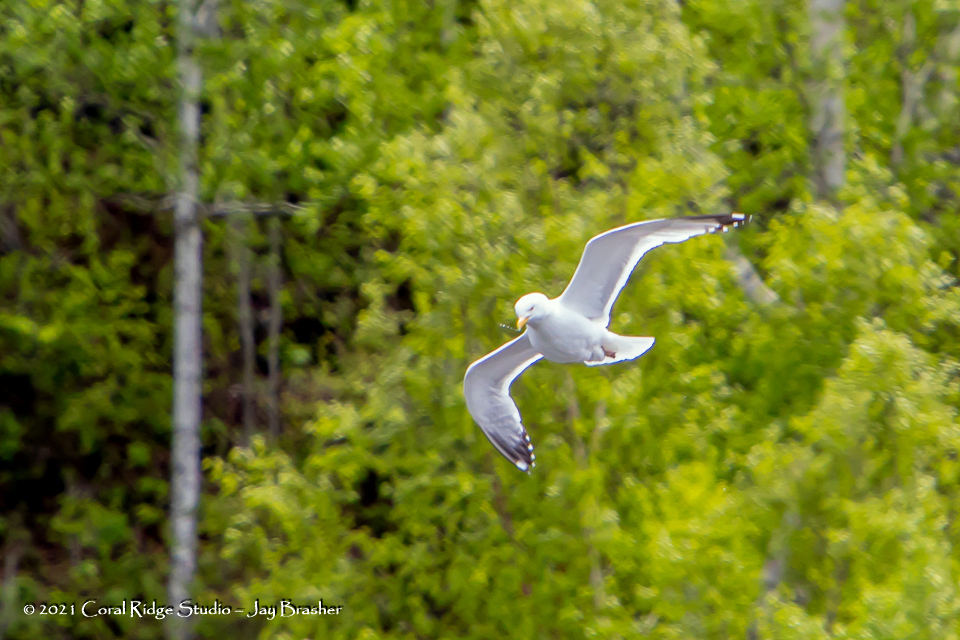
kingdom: Animalia
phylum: Chordata
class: Aves
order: Charadriiformes
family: Laridae
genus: Larus
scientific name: Larus argentatus
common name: Herring gull
